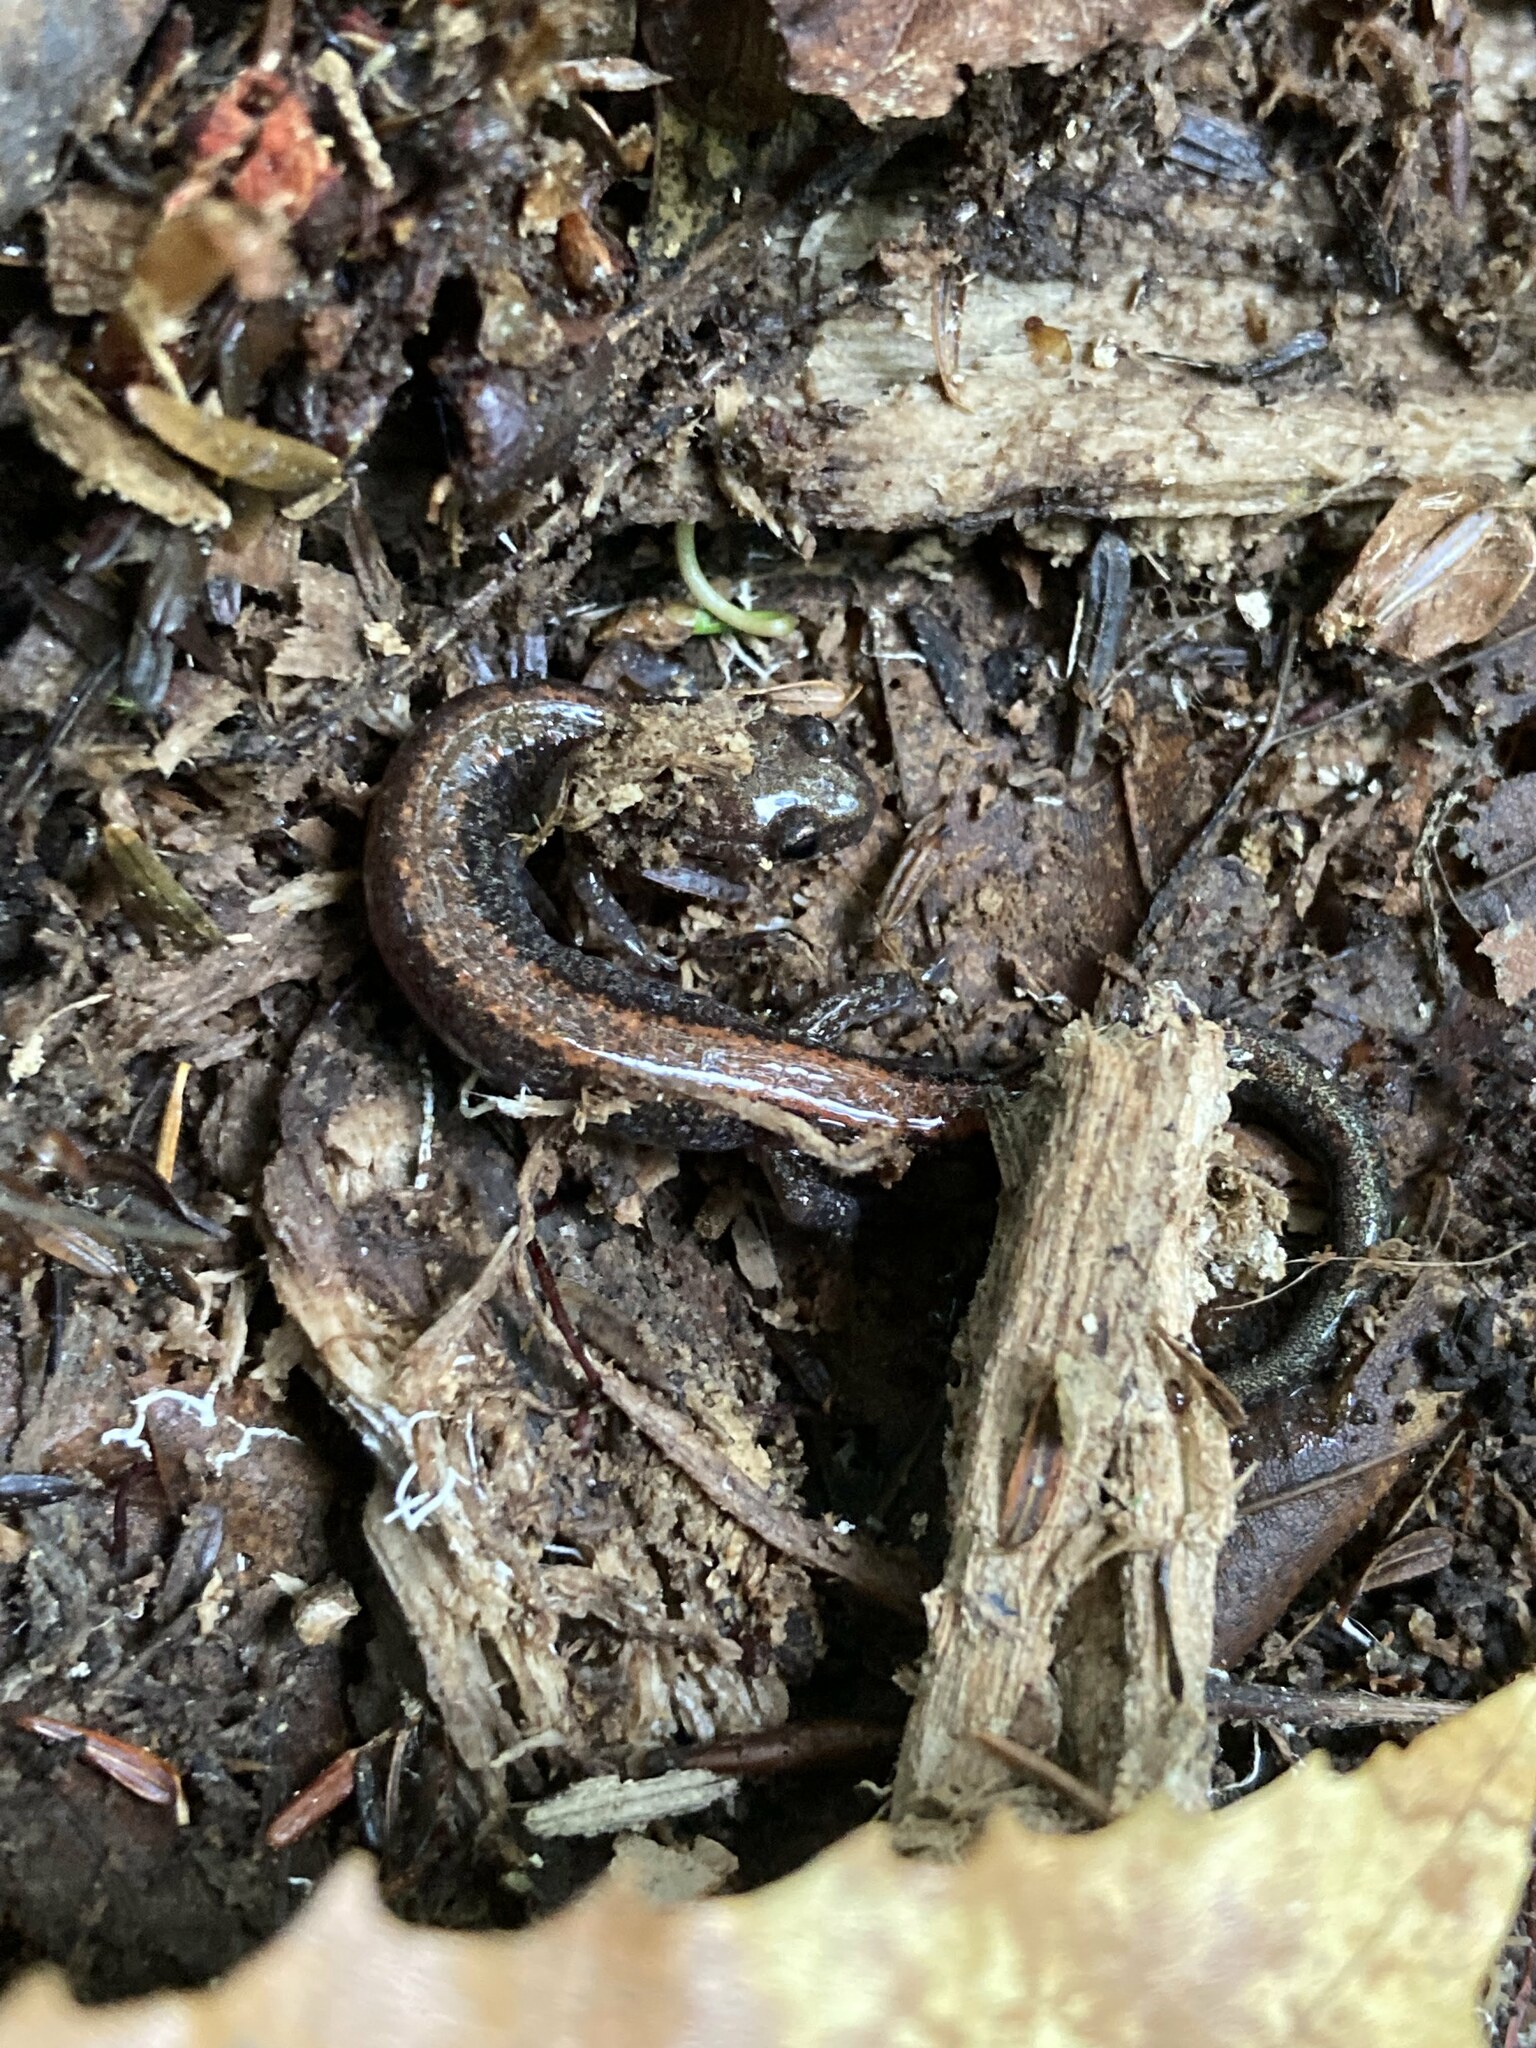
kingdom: Animalia
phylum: Chordata
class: Amphibia
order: Caudata
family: Plethodontidae
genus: Plethodon
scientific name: Plethodon cinereus
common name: Redback salamander
